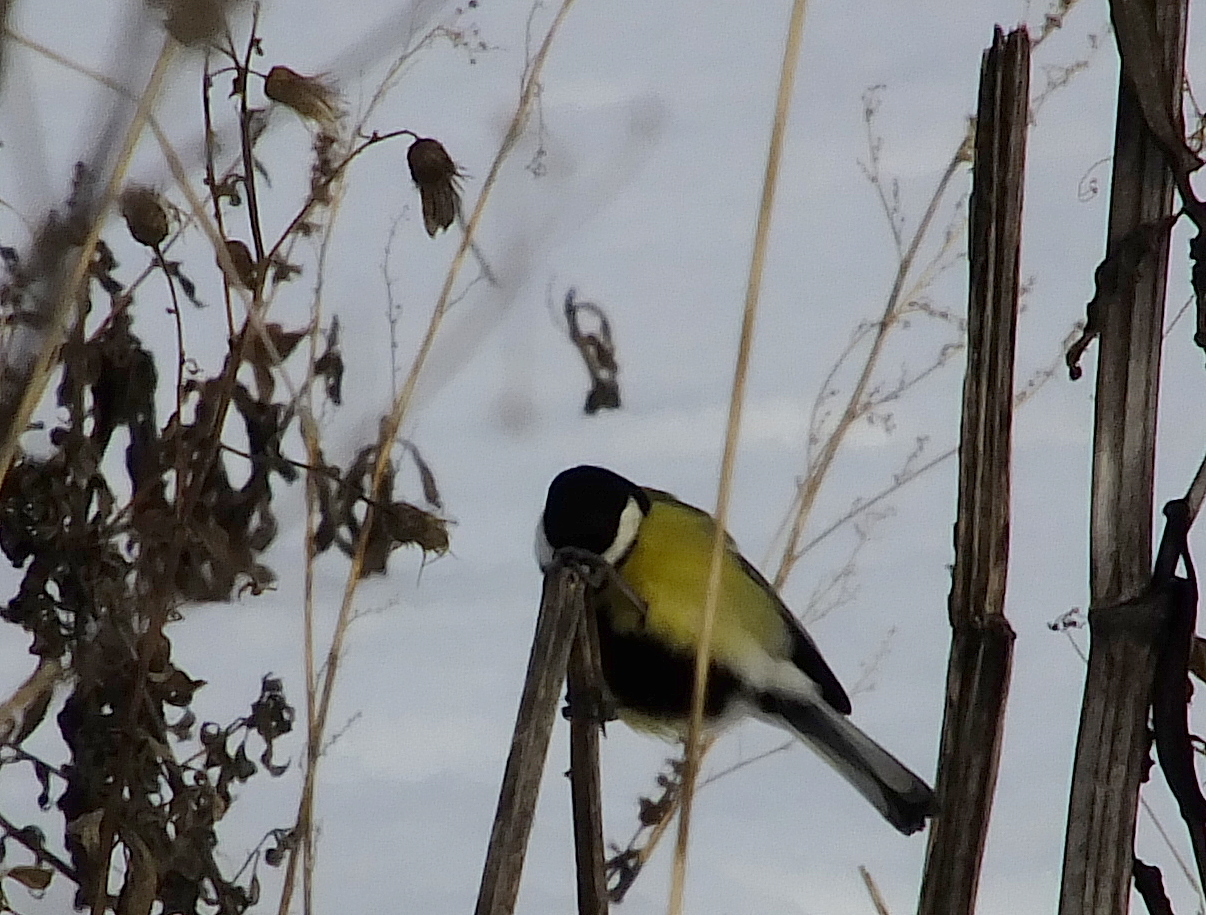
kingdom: Animalia
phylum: Chordata
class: Aves
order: Passeriformes
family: Paridae
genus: Parus
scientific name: Parus major
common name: Great tit
